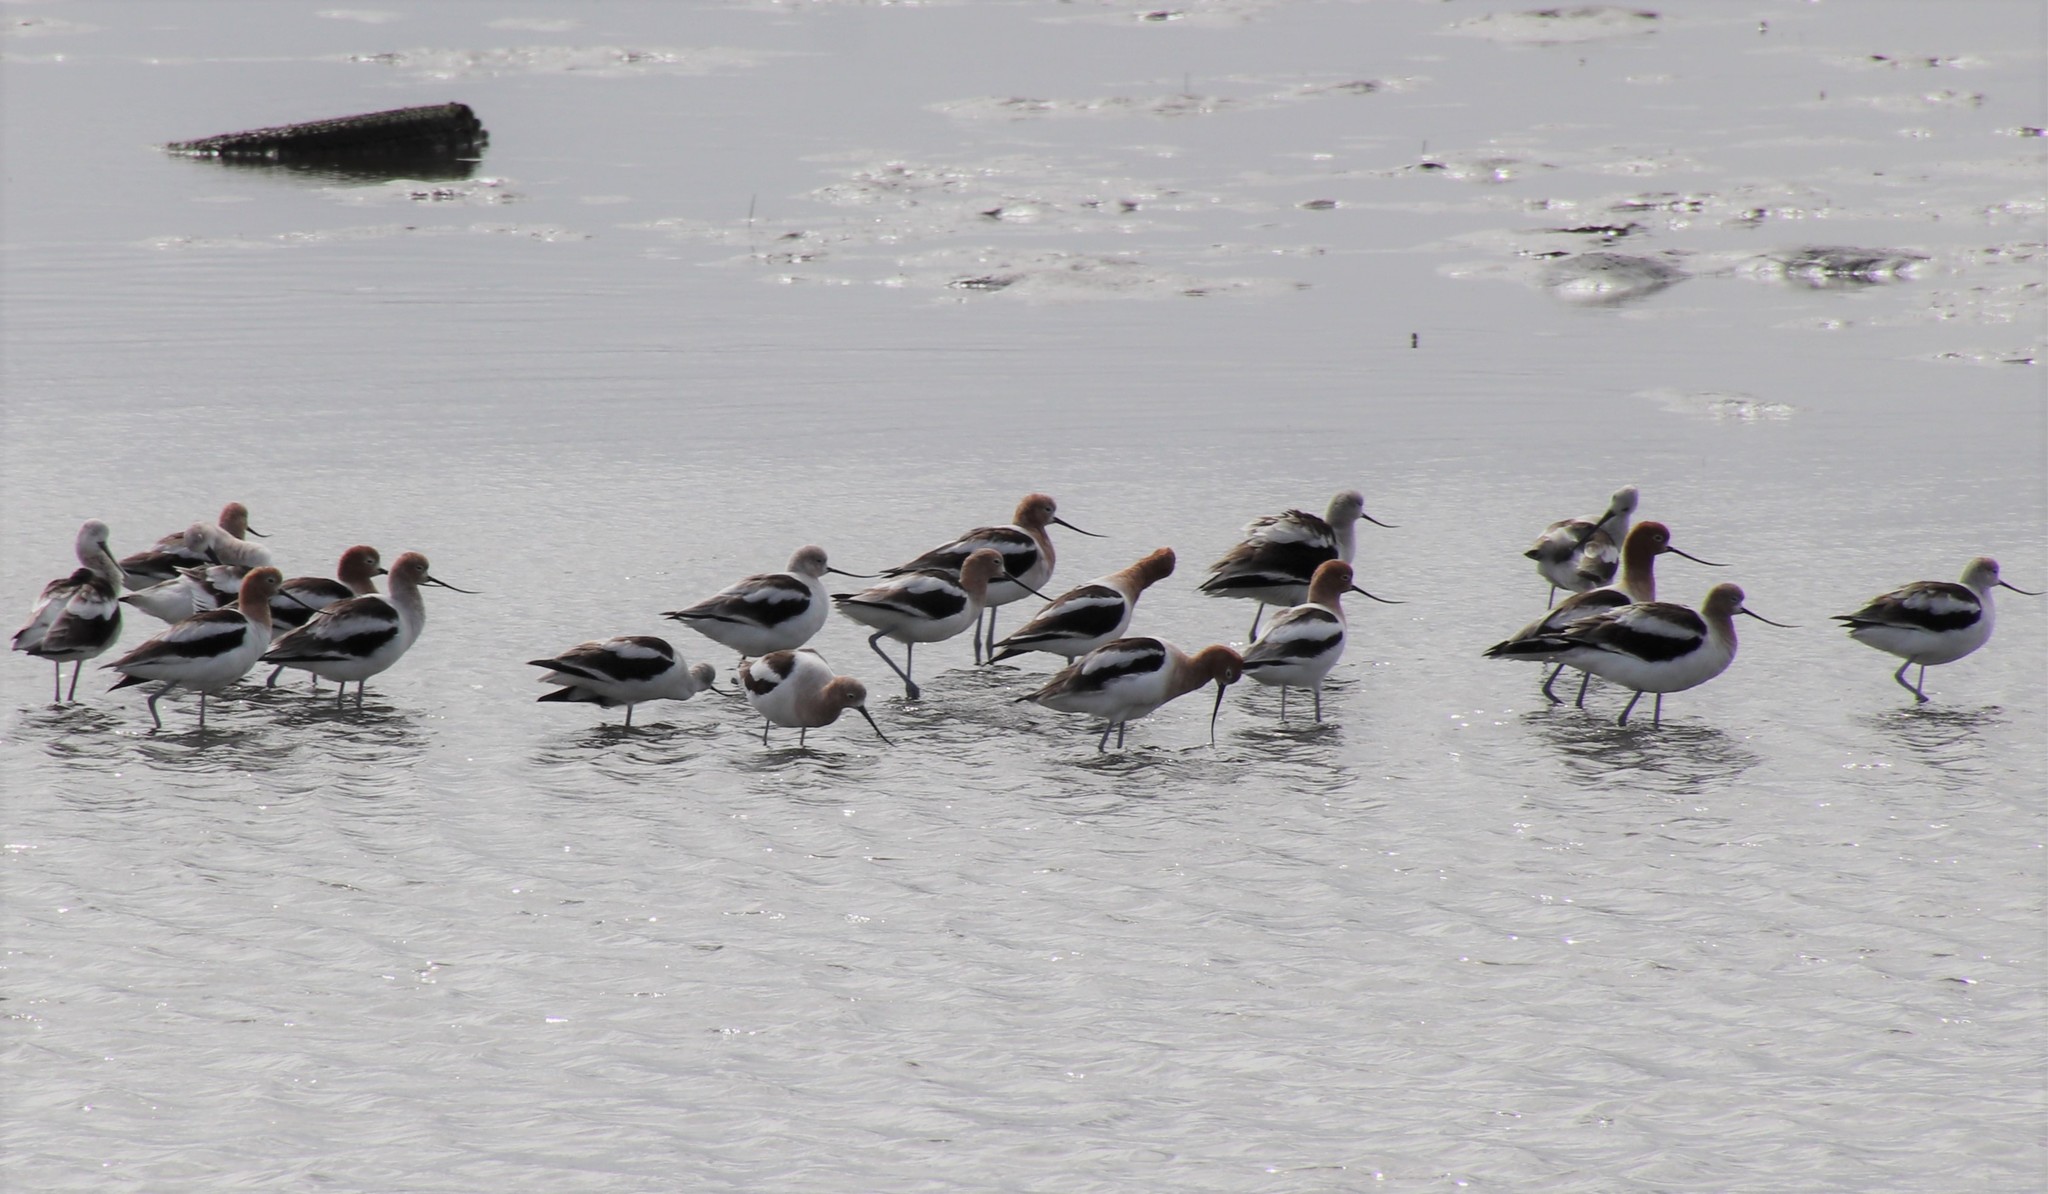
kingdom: Animalia
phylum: Chordata
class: Aves
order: Charadriiformes
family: Recurvirostridae
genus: Recurvirostra
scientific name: Recurvirostra americana
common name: American avocet
